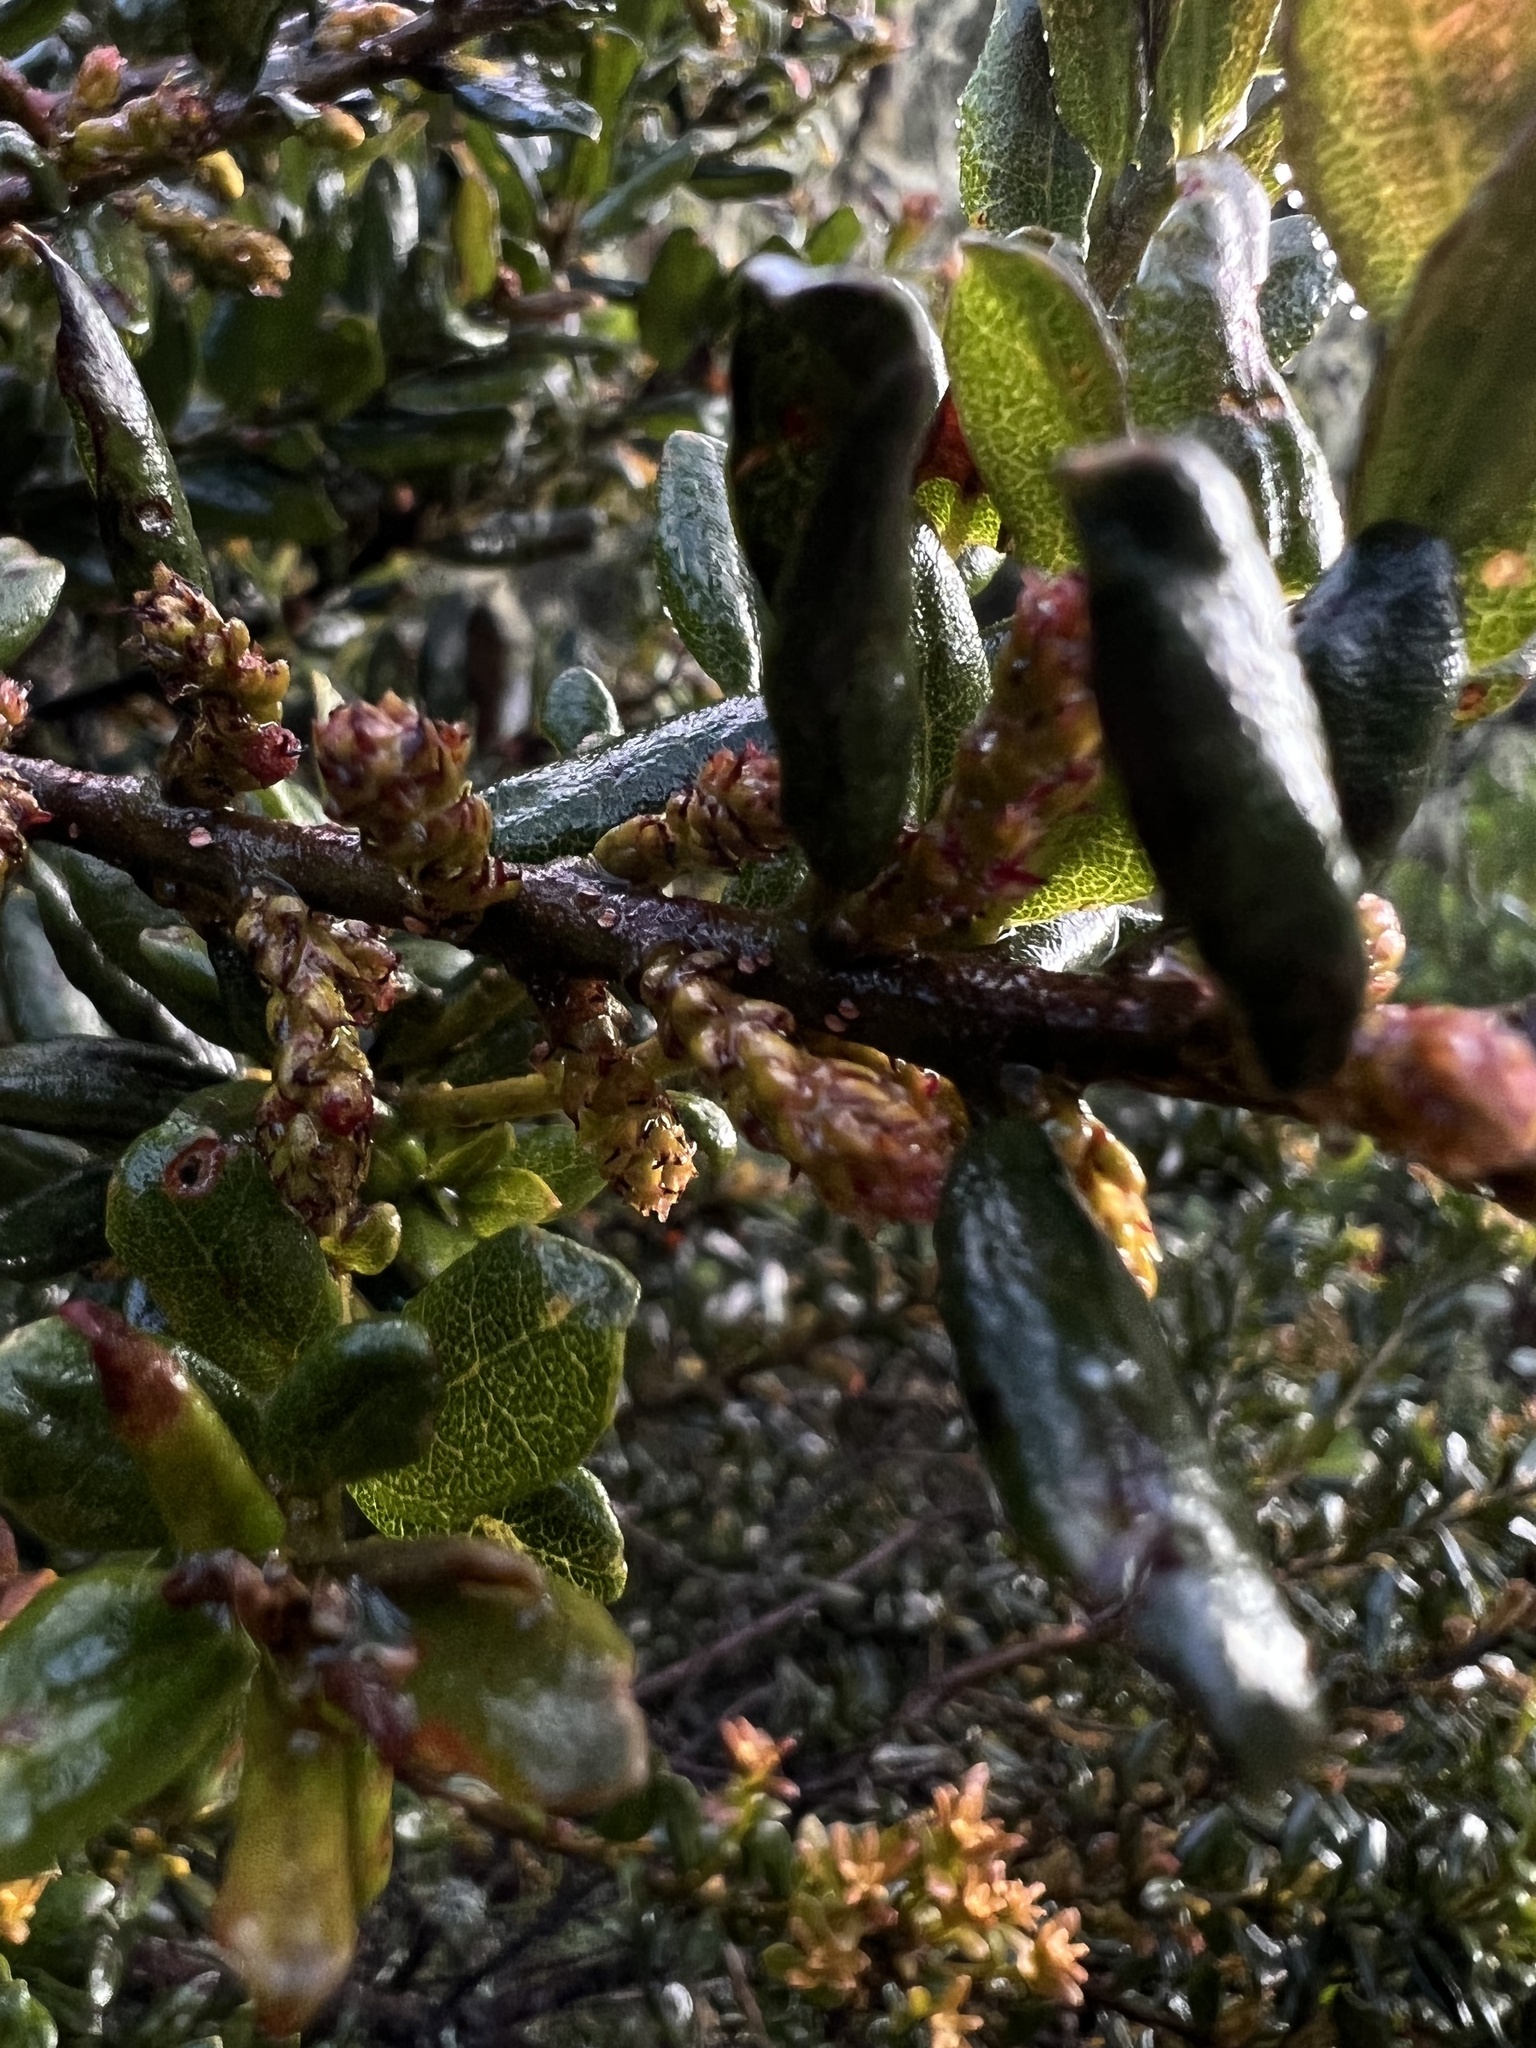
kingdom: Plantae
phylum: Tracheophyta
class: Magnoliopsida
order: Fagales
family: Myricaceae
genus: Morella
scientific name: Morella parvifolia
